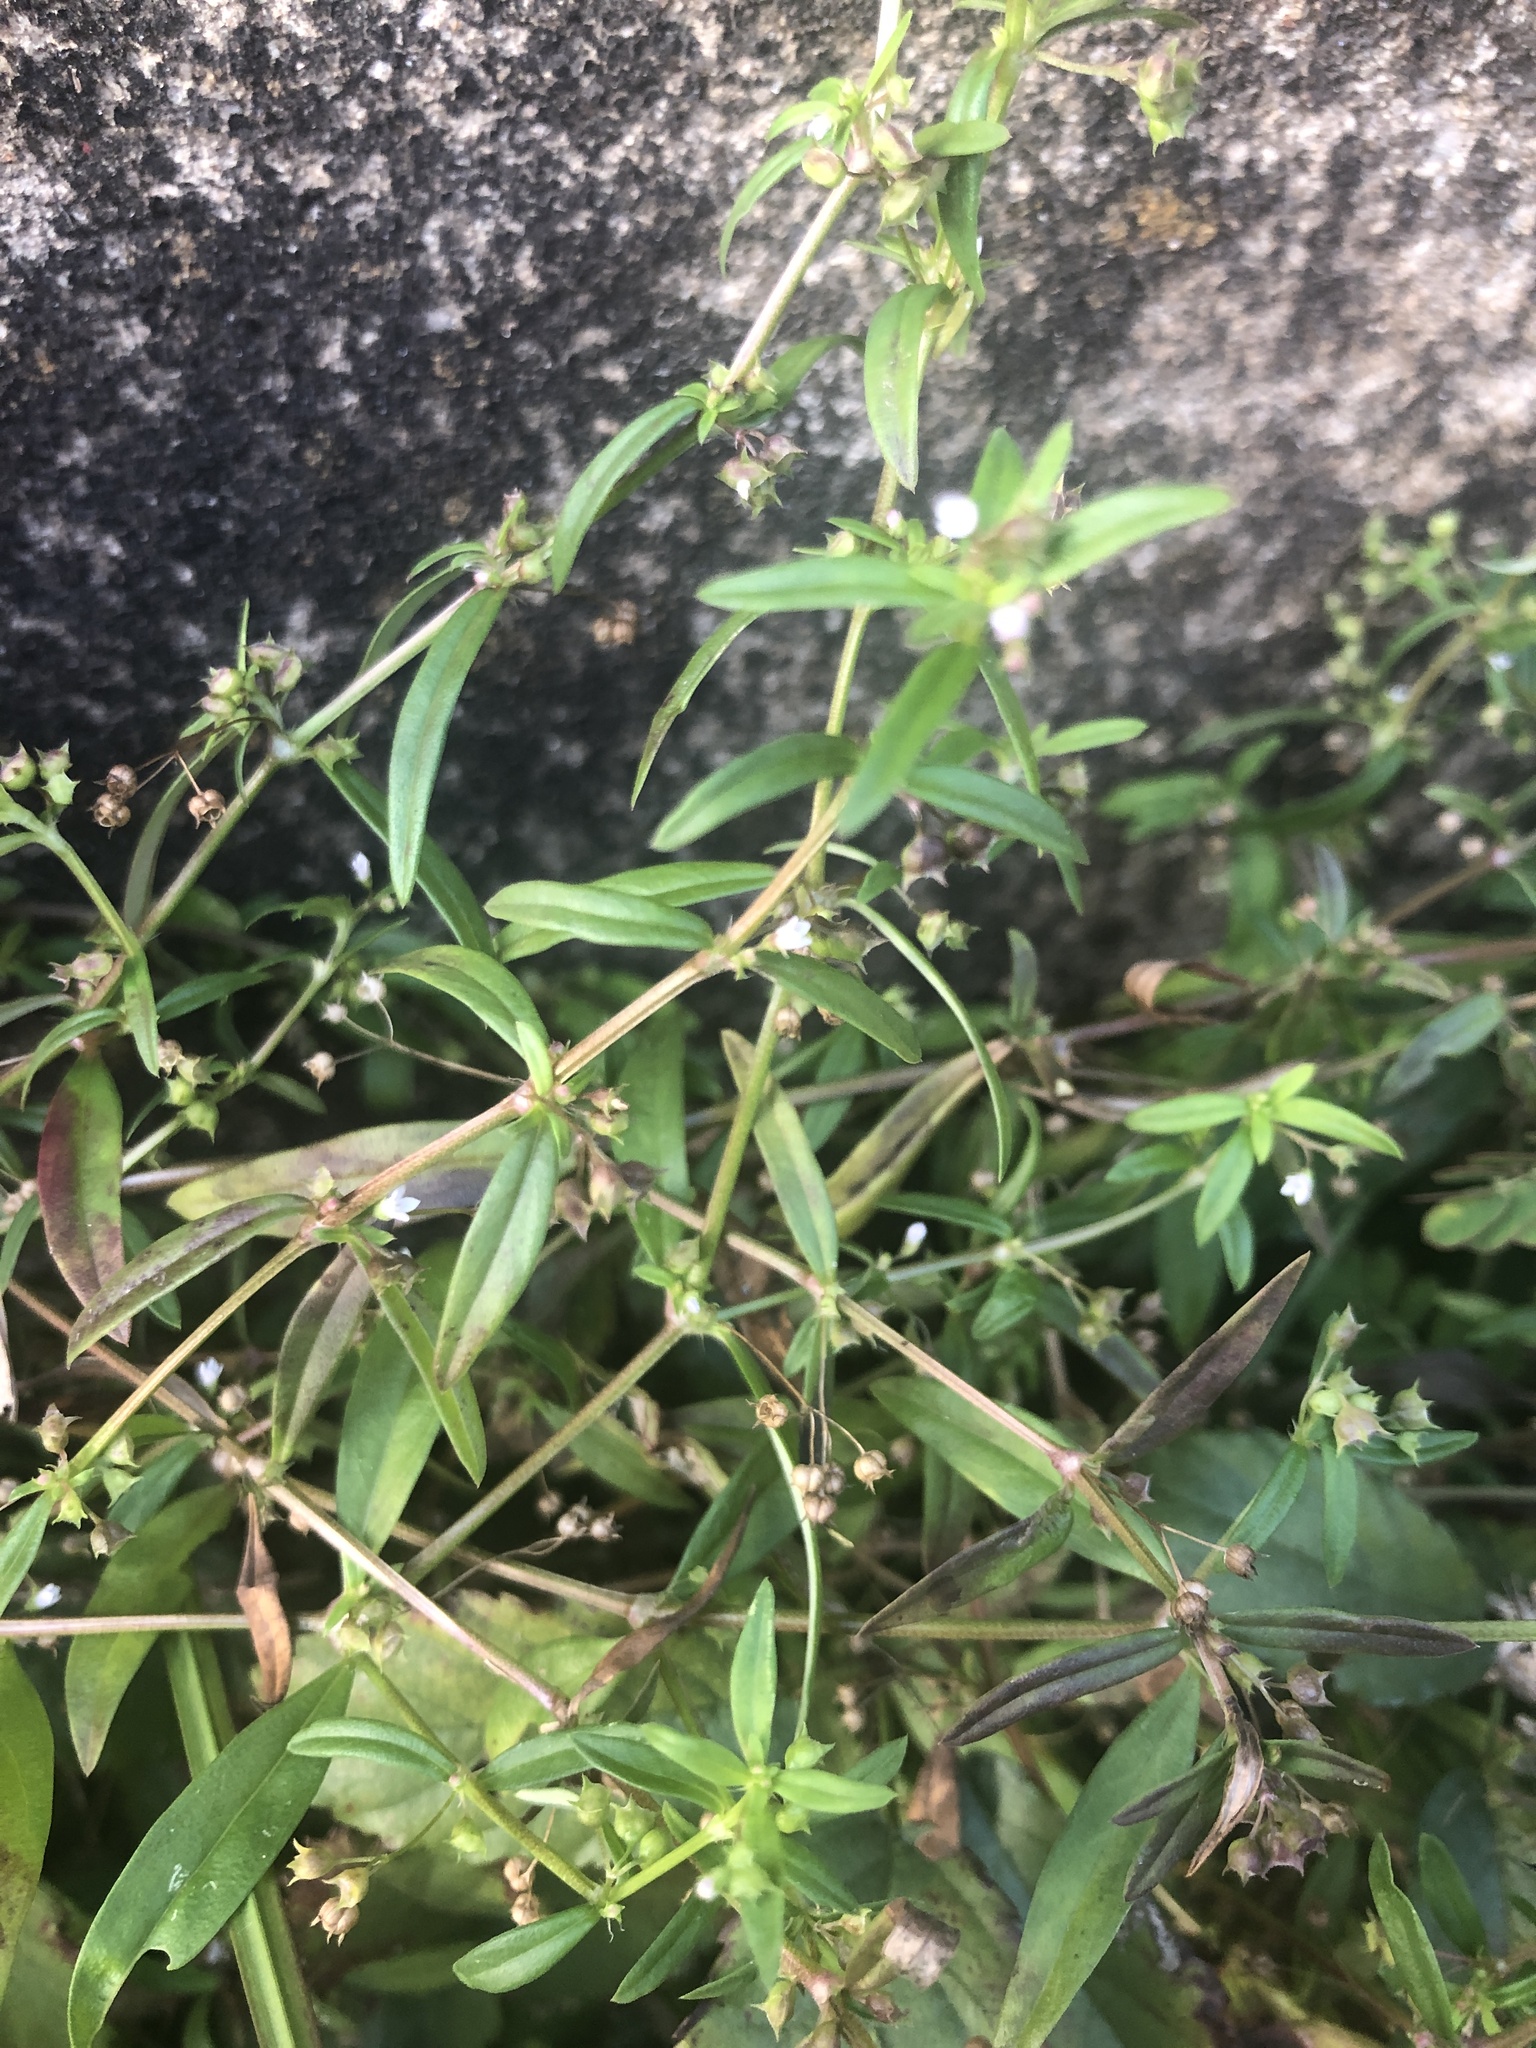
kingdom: Plantae
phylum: Tracheophyta
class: Magnoliopsida
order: Caryophyllales
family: Molluginaceae
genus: Mollugo
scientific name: Mollugo verticillata
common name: Green carpetweed
